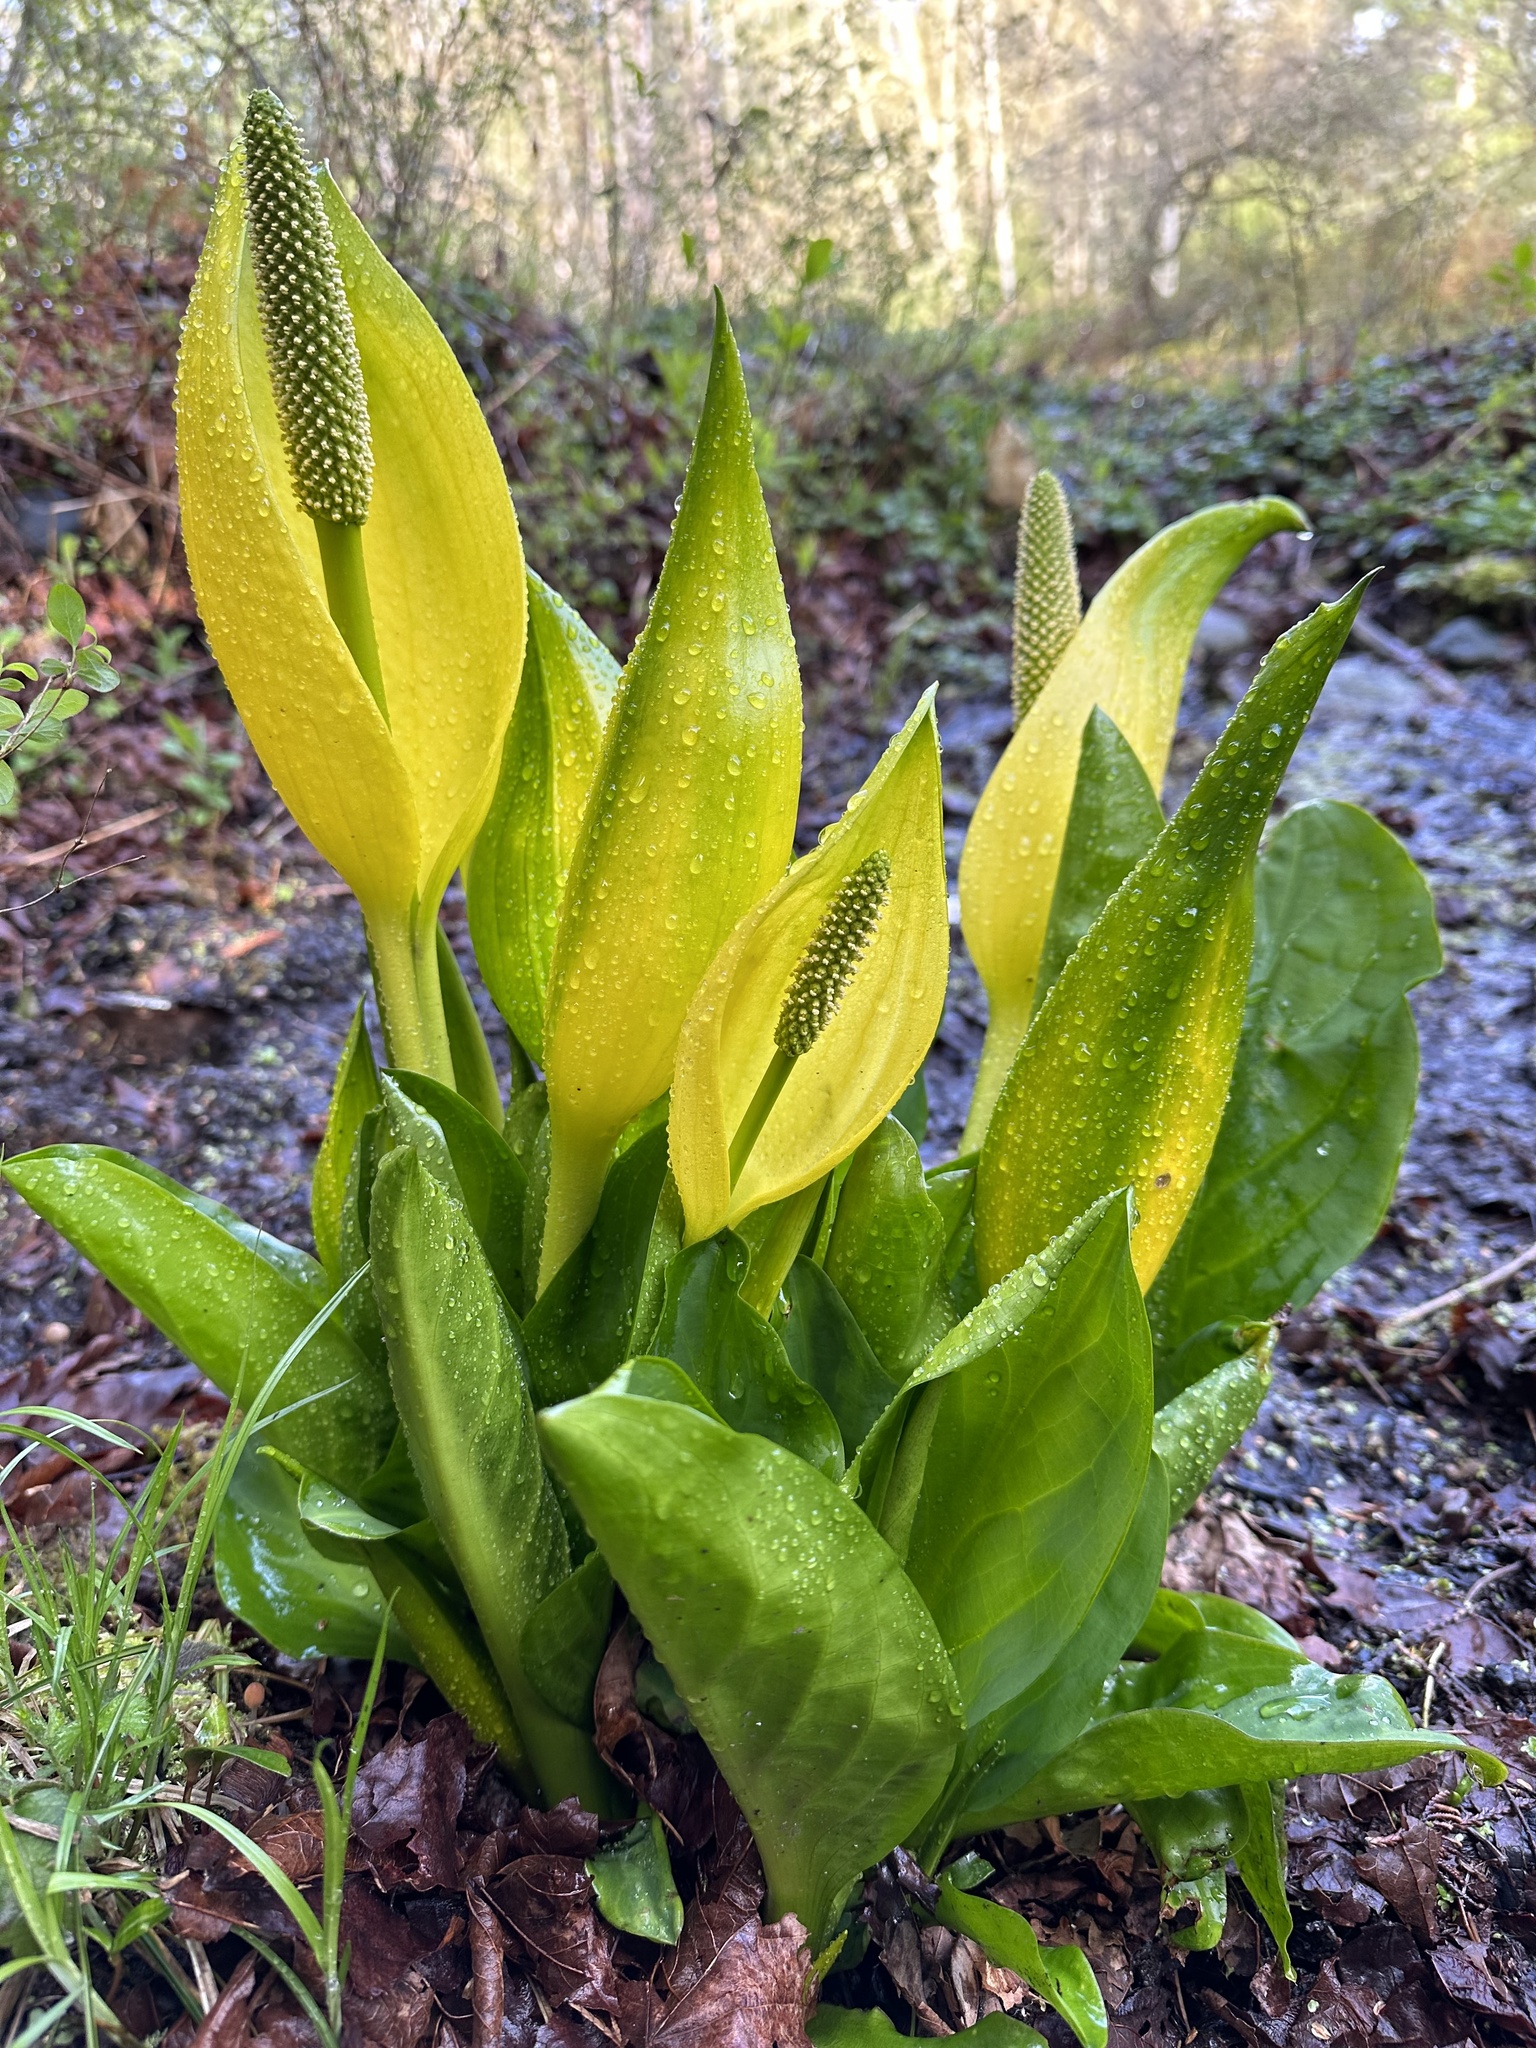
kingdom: Plantae
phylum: Tracheophyta
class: Liliopsida
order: Alismatales
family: Araceae
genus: Lysichiton
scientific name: Lysichiton americanus
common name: American skunk cabbage
